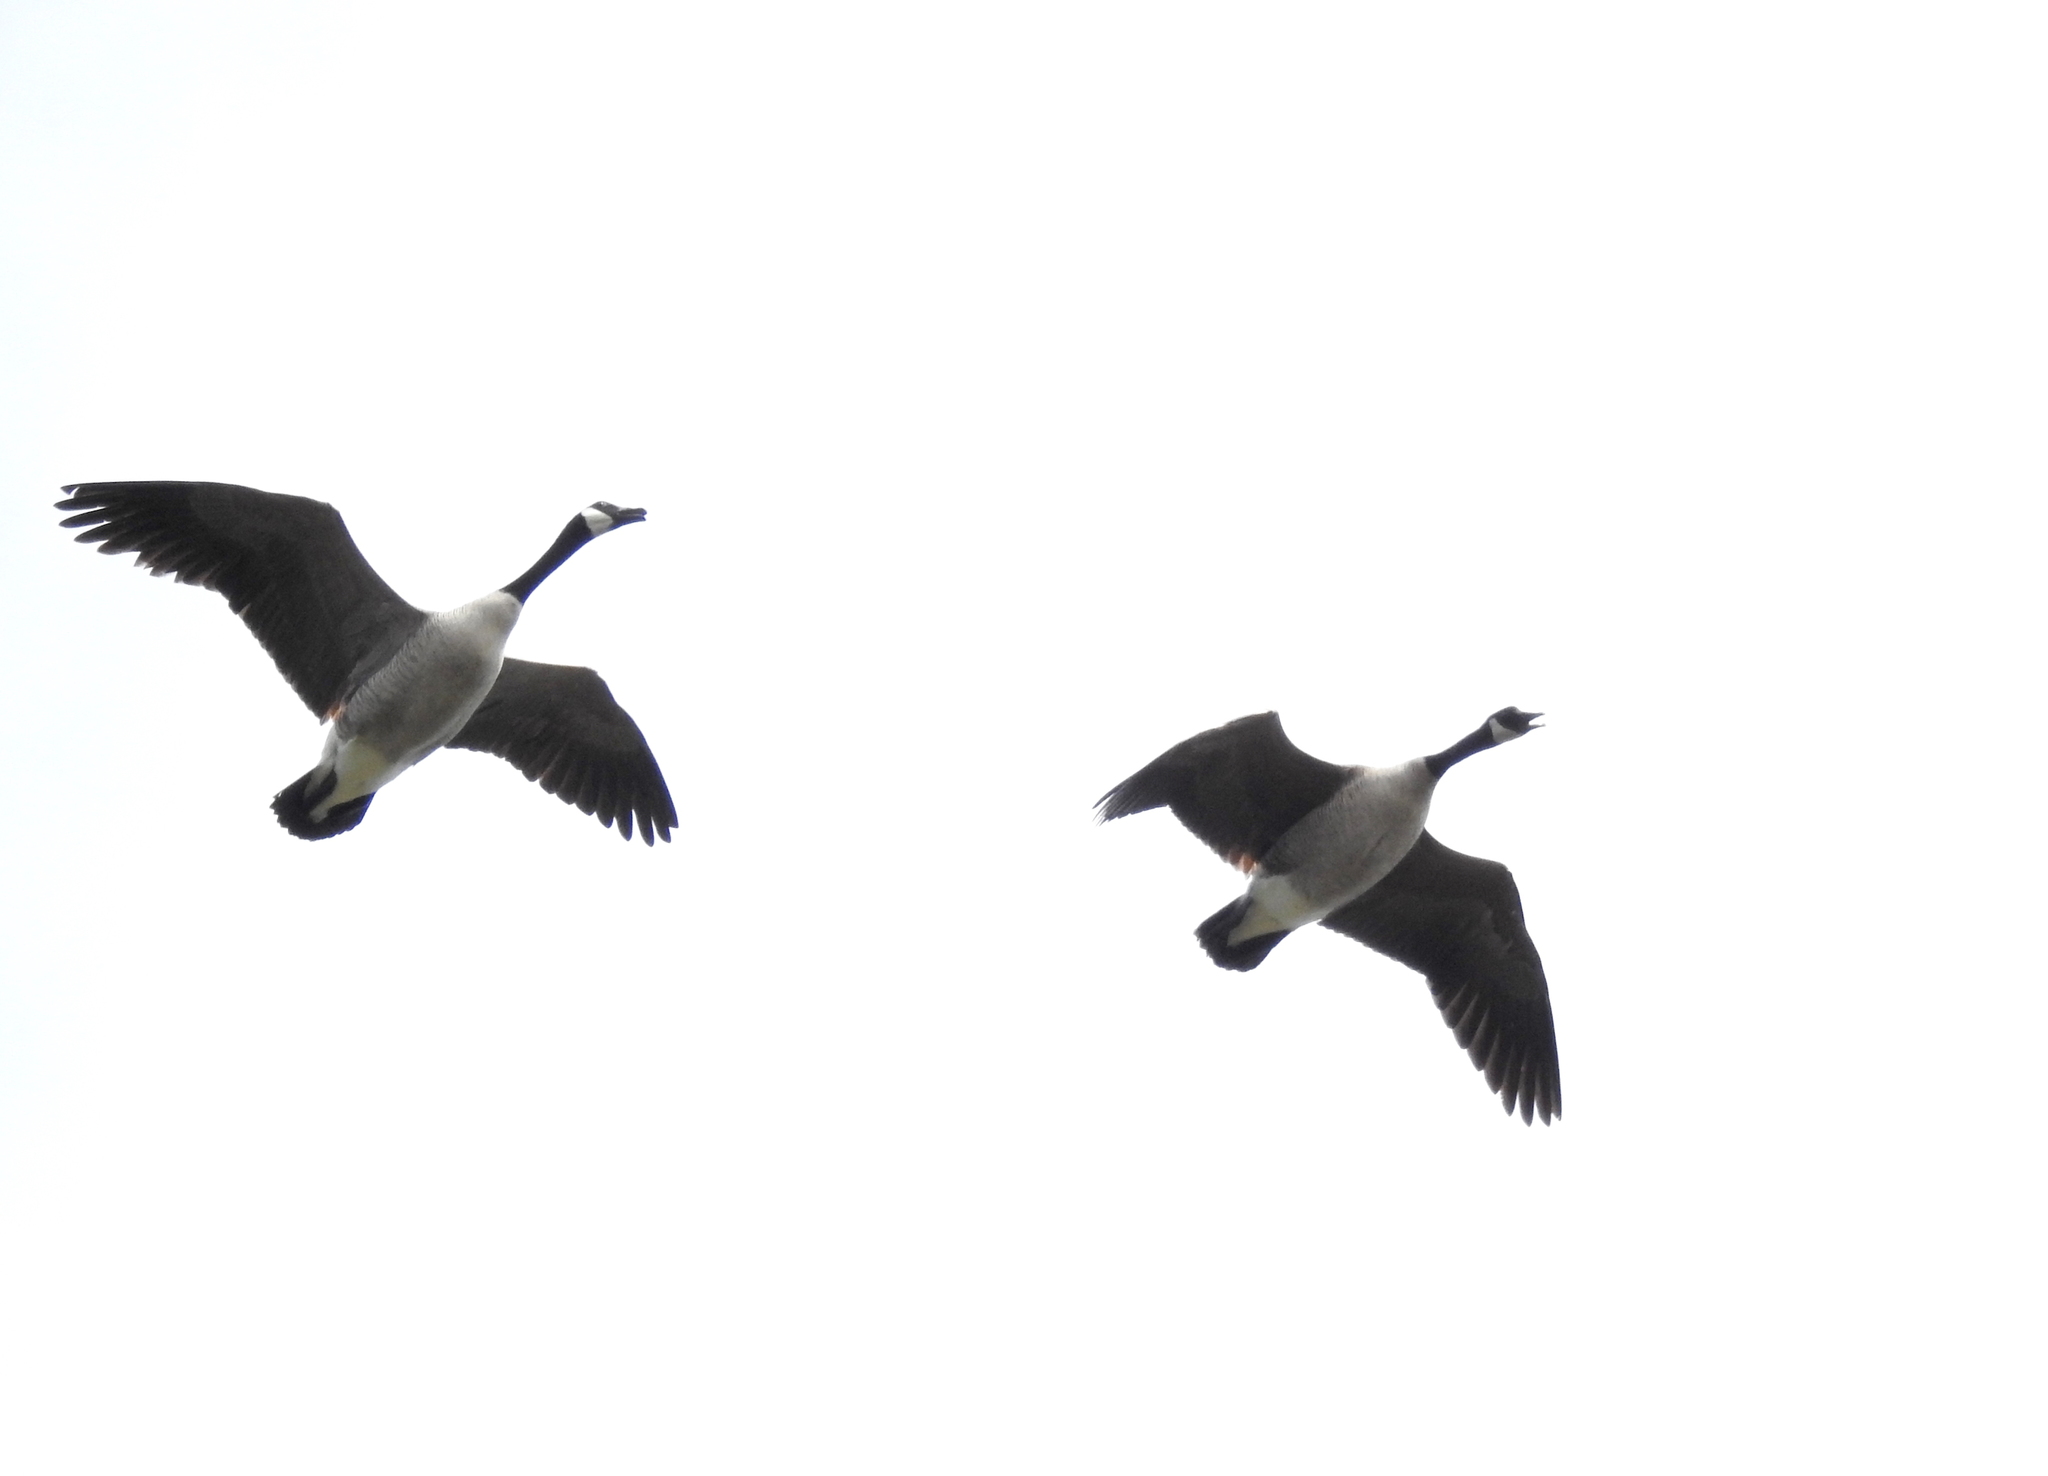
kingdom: Animalia
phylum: Chordata
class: Aves
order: Anseriformes
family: Anatidae
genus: Branta
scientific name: Branta canadensis
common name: Canada goose
